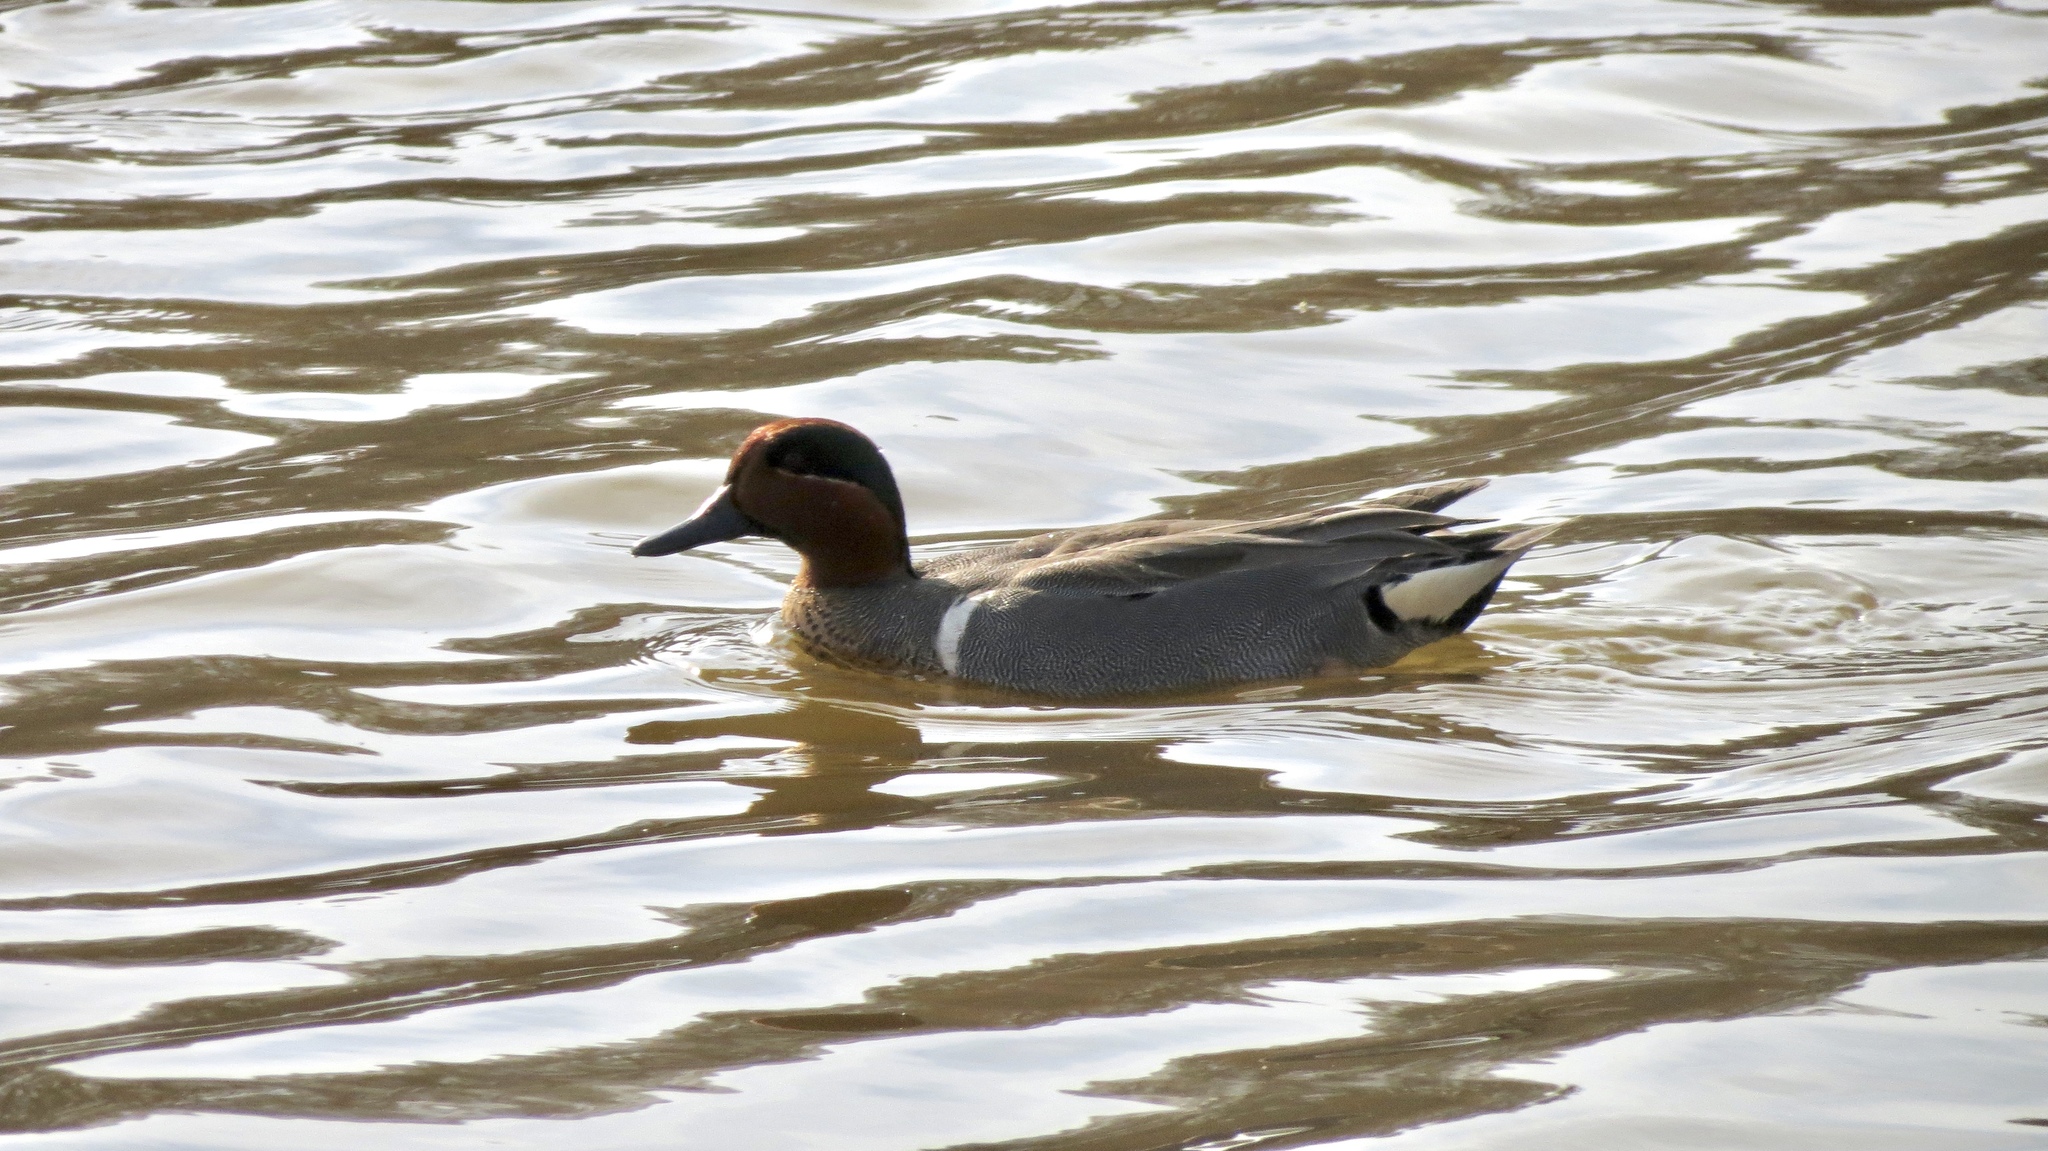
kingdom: Animalia
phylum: Chordata
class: Aves
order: Anseriformes
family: Anatidae
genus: Anas
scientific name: Anas crecca
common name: Eurasian teal
